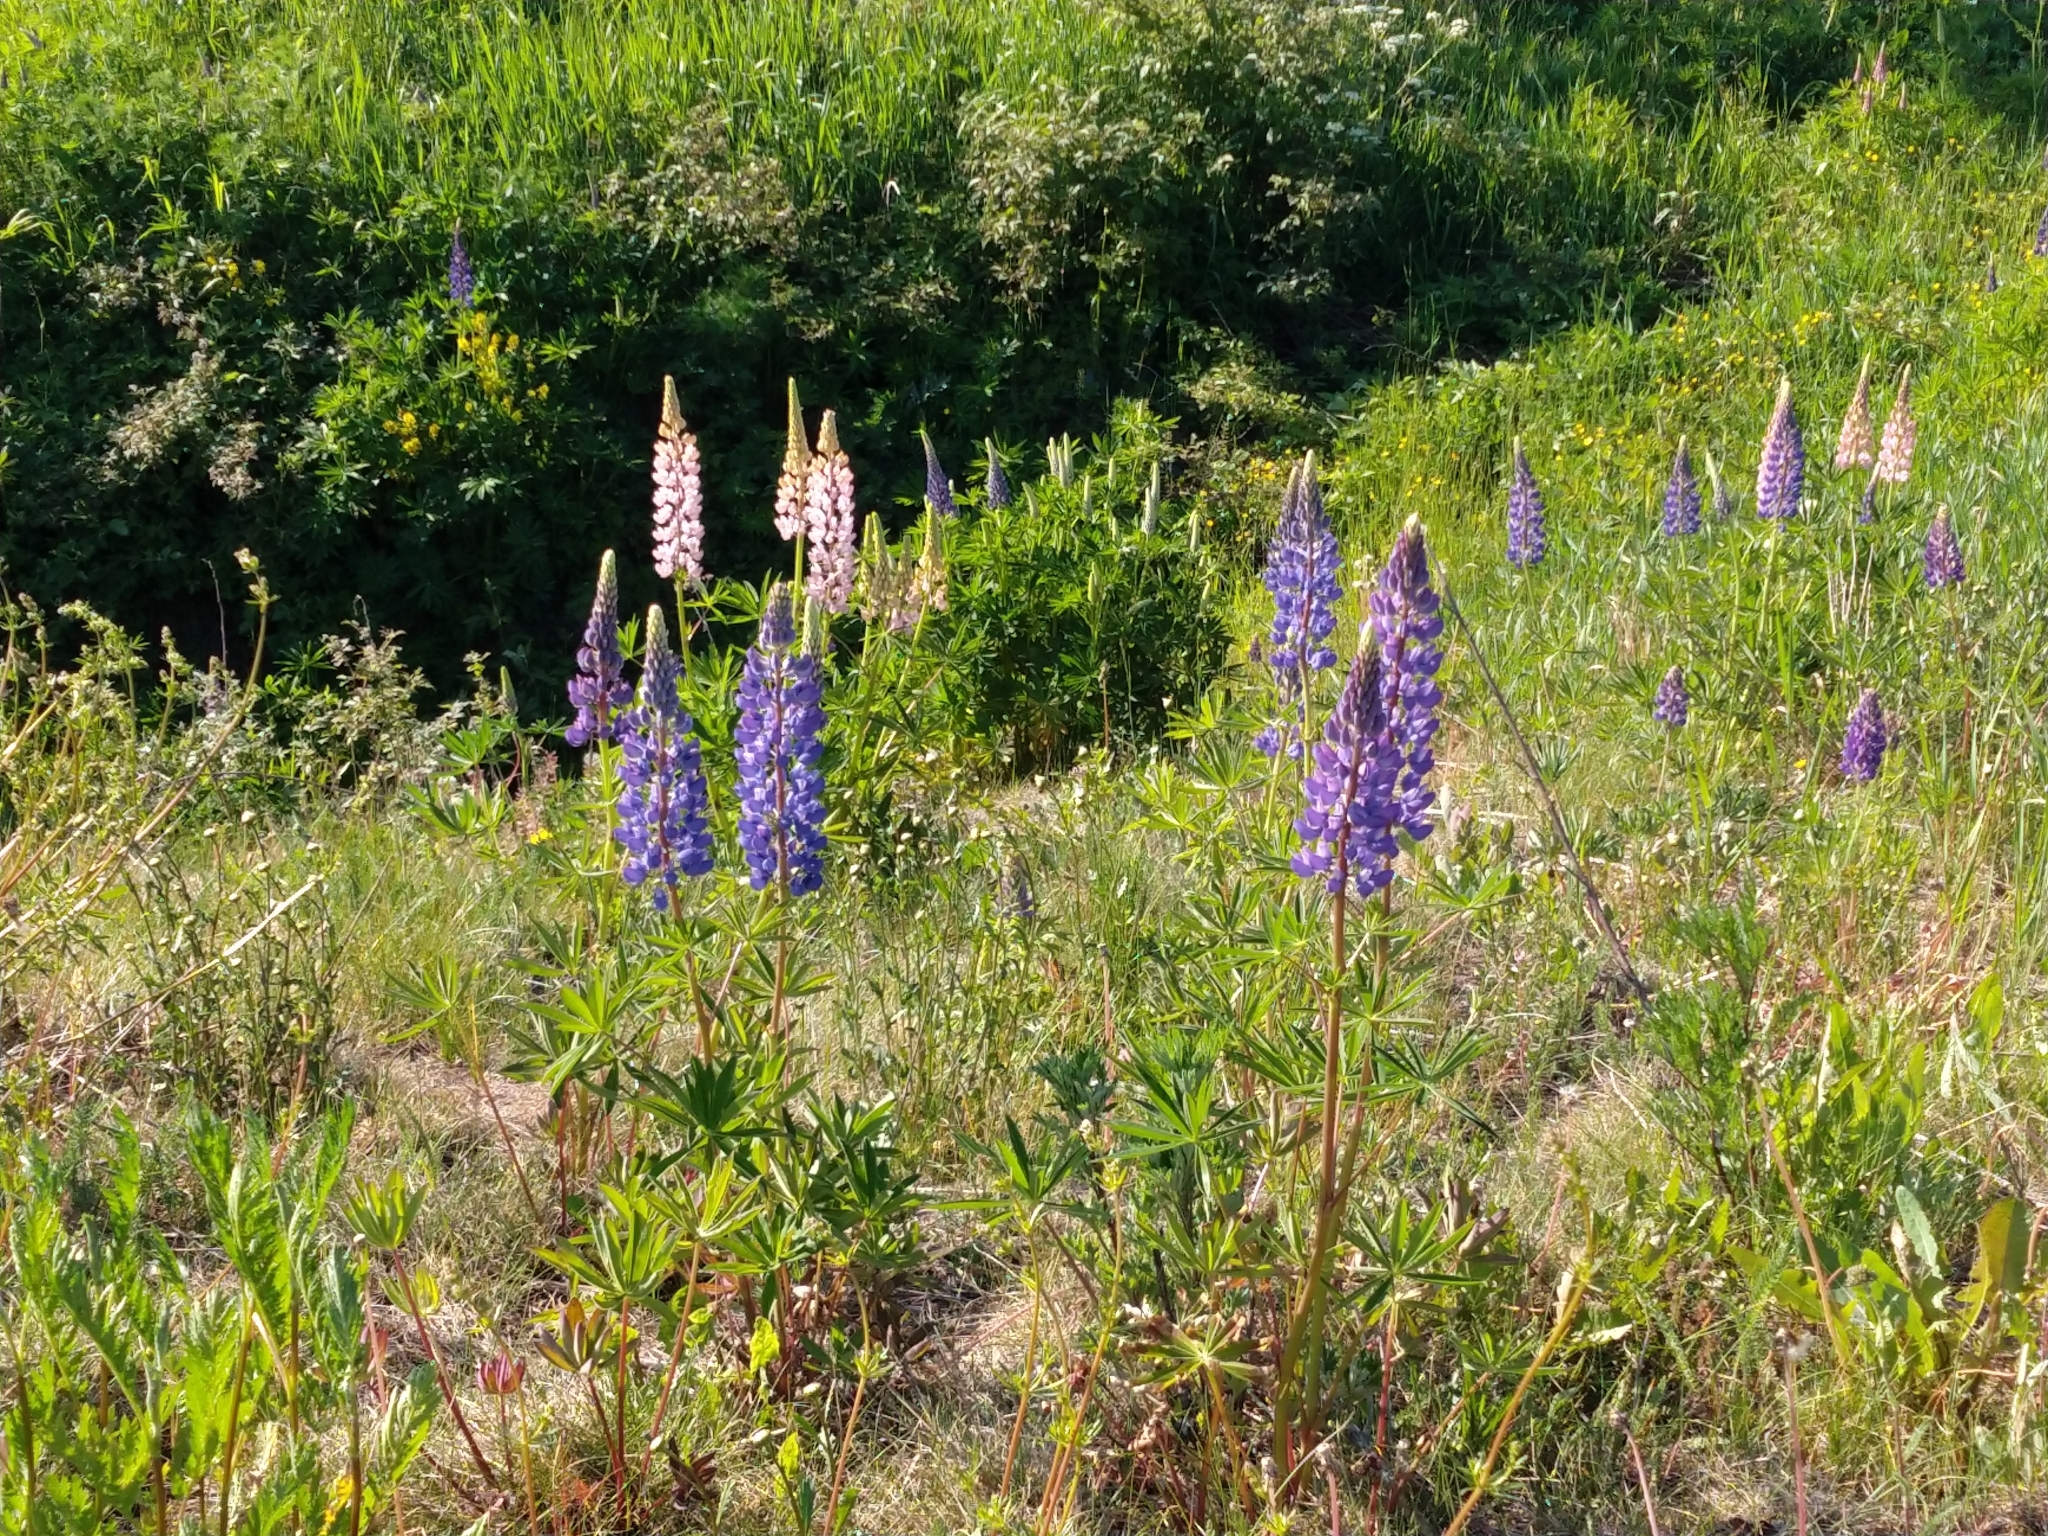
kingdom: Plantae
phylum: Tracheophyta
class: Magnoliopsida
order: Fabales
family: Fabaceae
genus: Lupinus
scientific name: Lupinus polyphyllus
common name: Garden lupin
